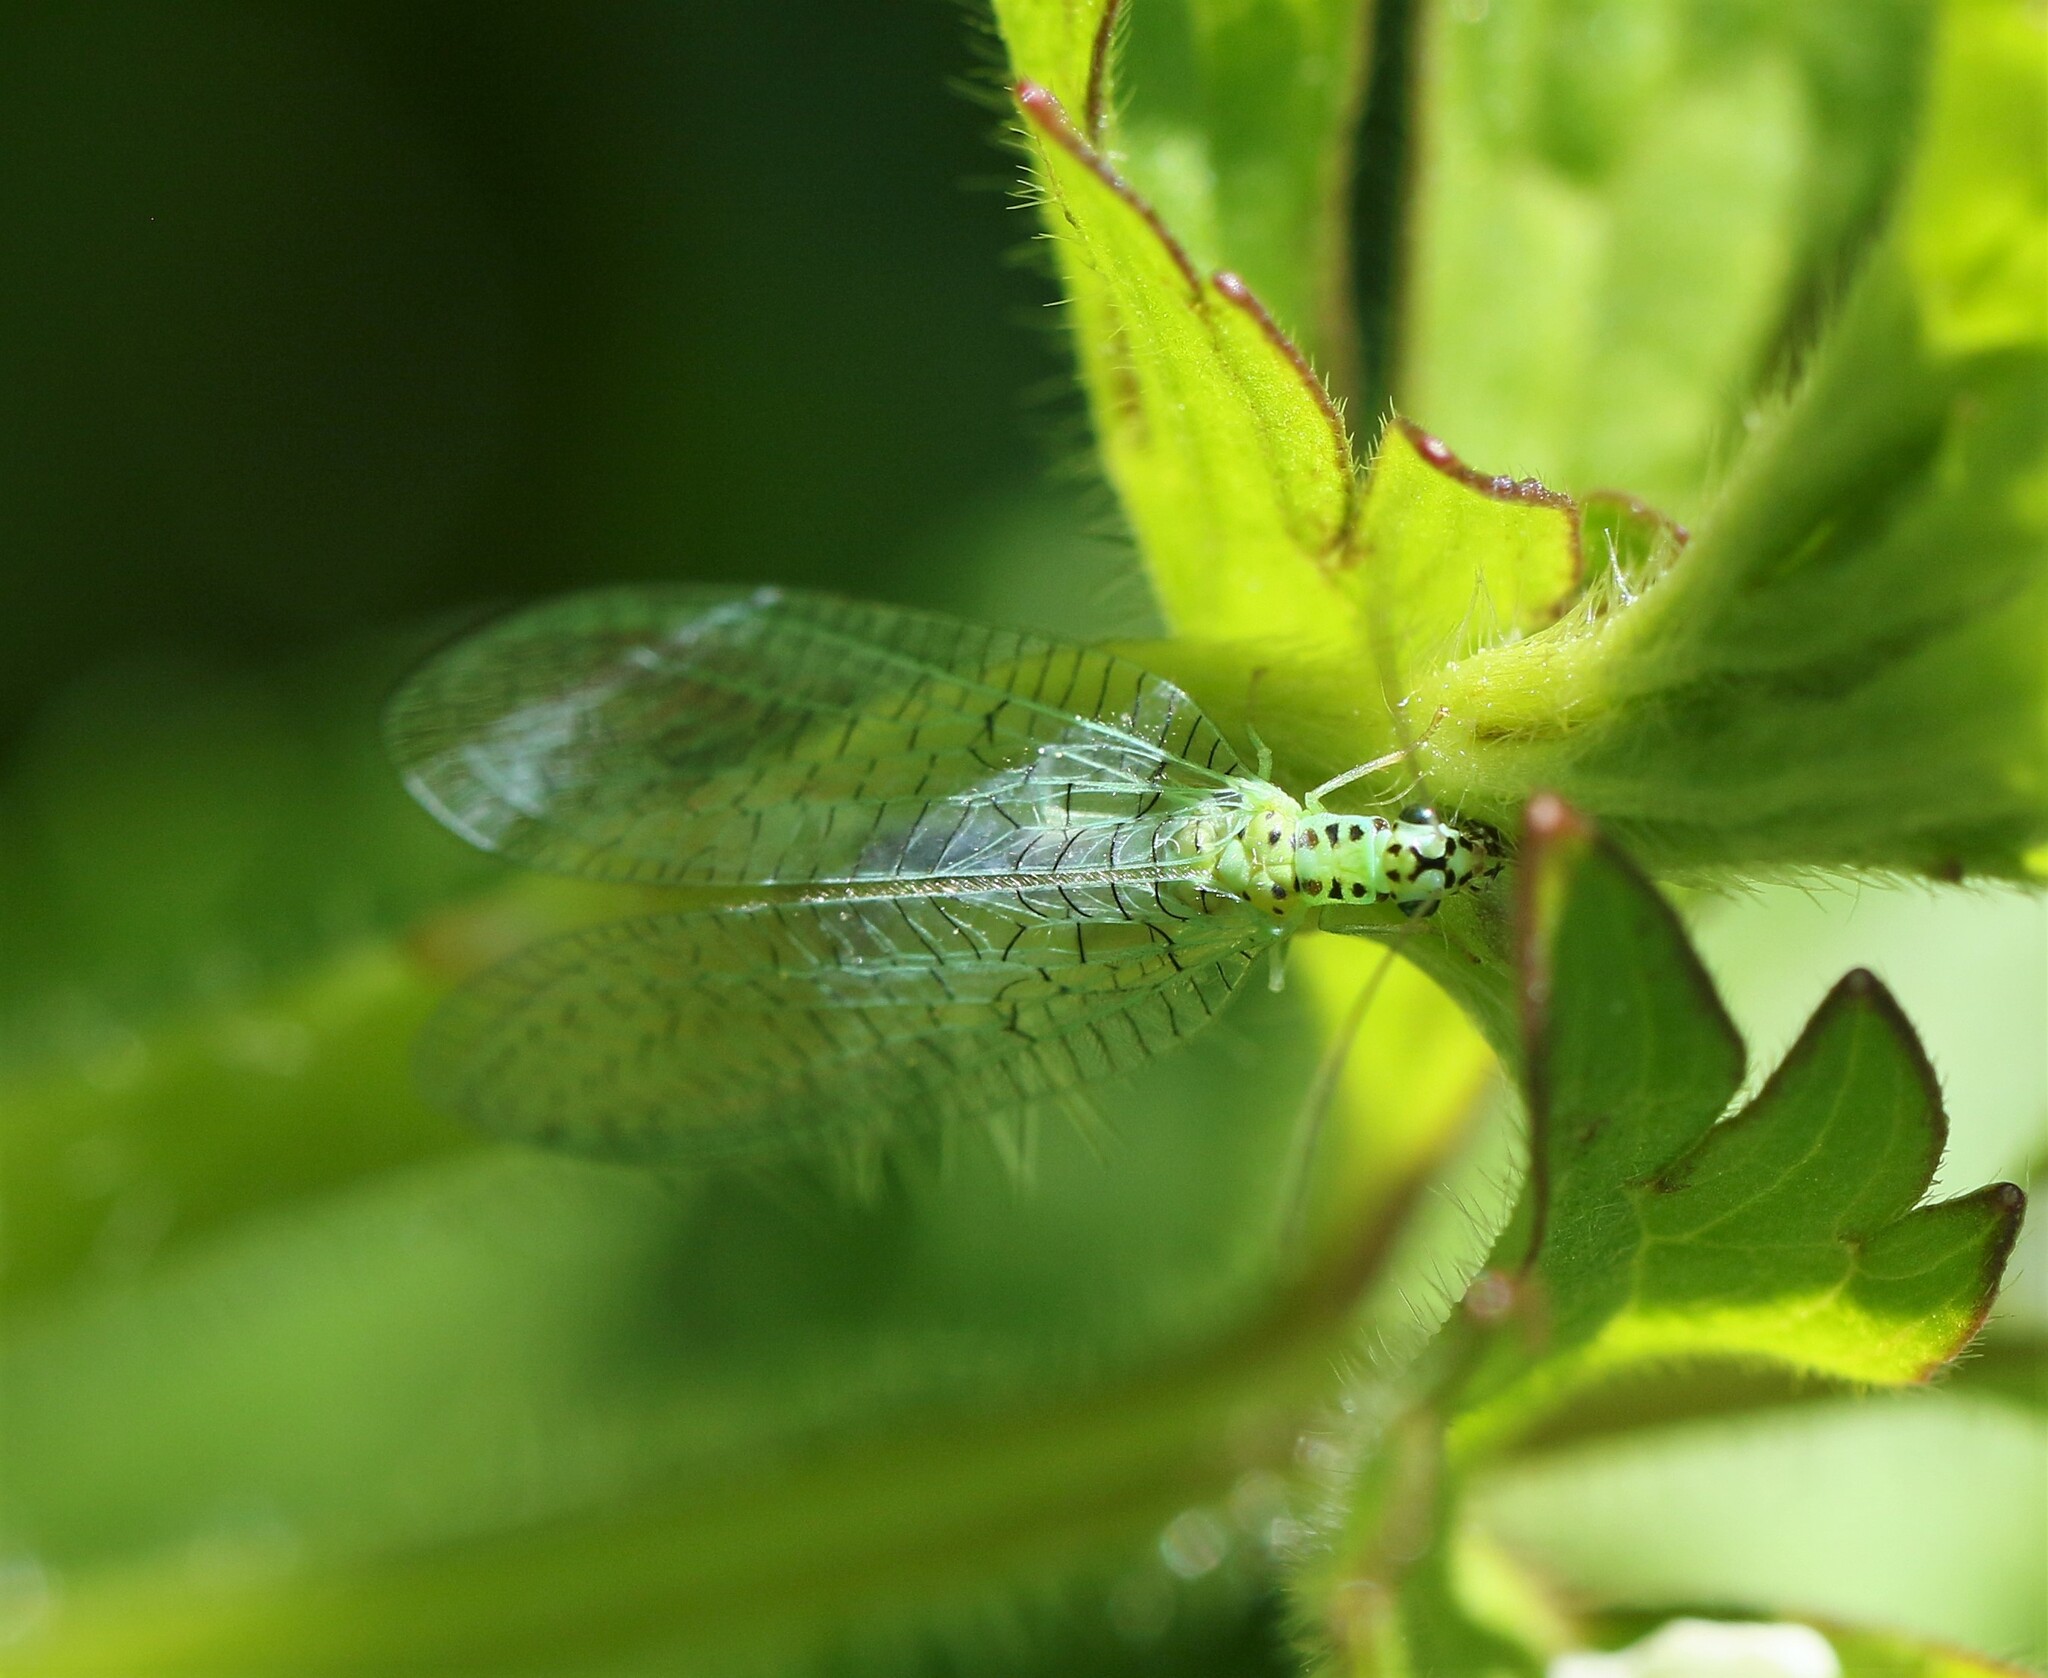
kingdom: Animalia
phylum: Arthropoda
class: Insecta
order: Neuroptera
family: Chrysopidae
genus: Chrysopa
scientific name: Chrysopa chi
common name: X-marked green lacewing
